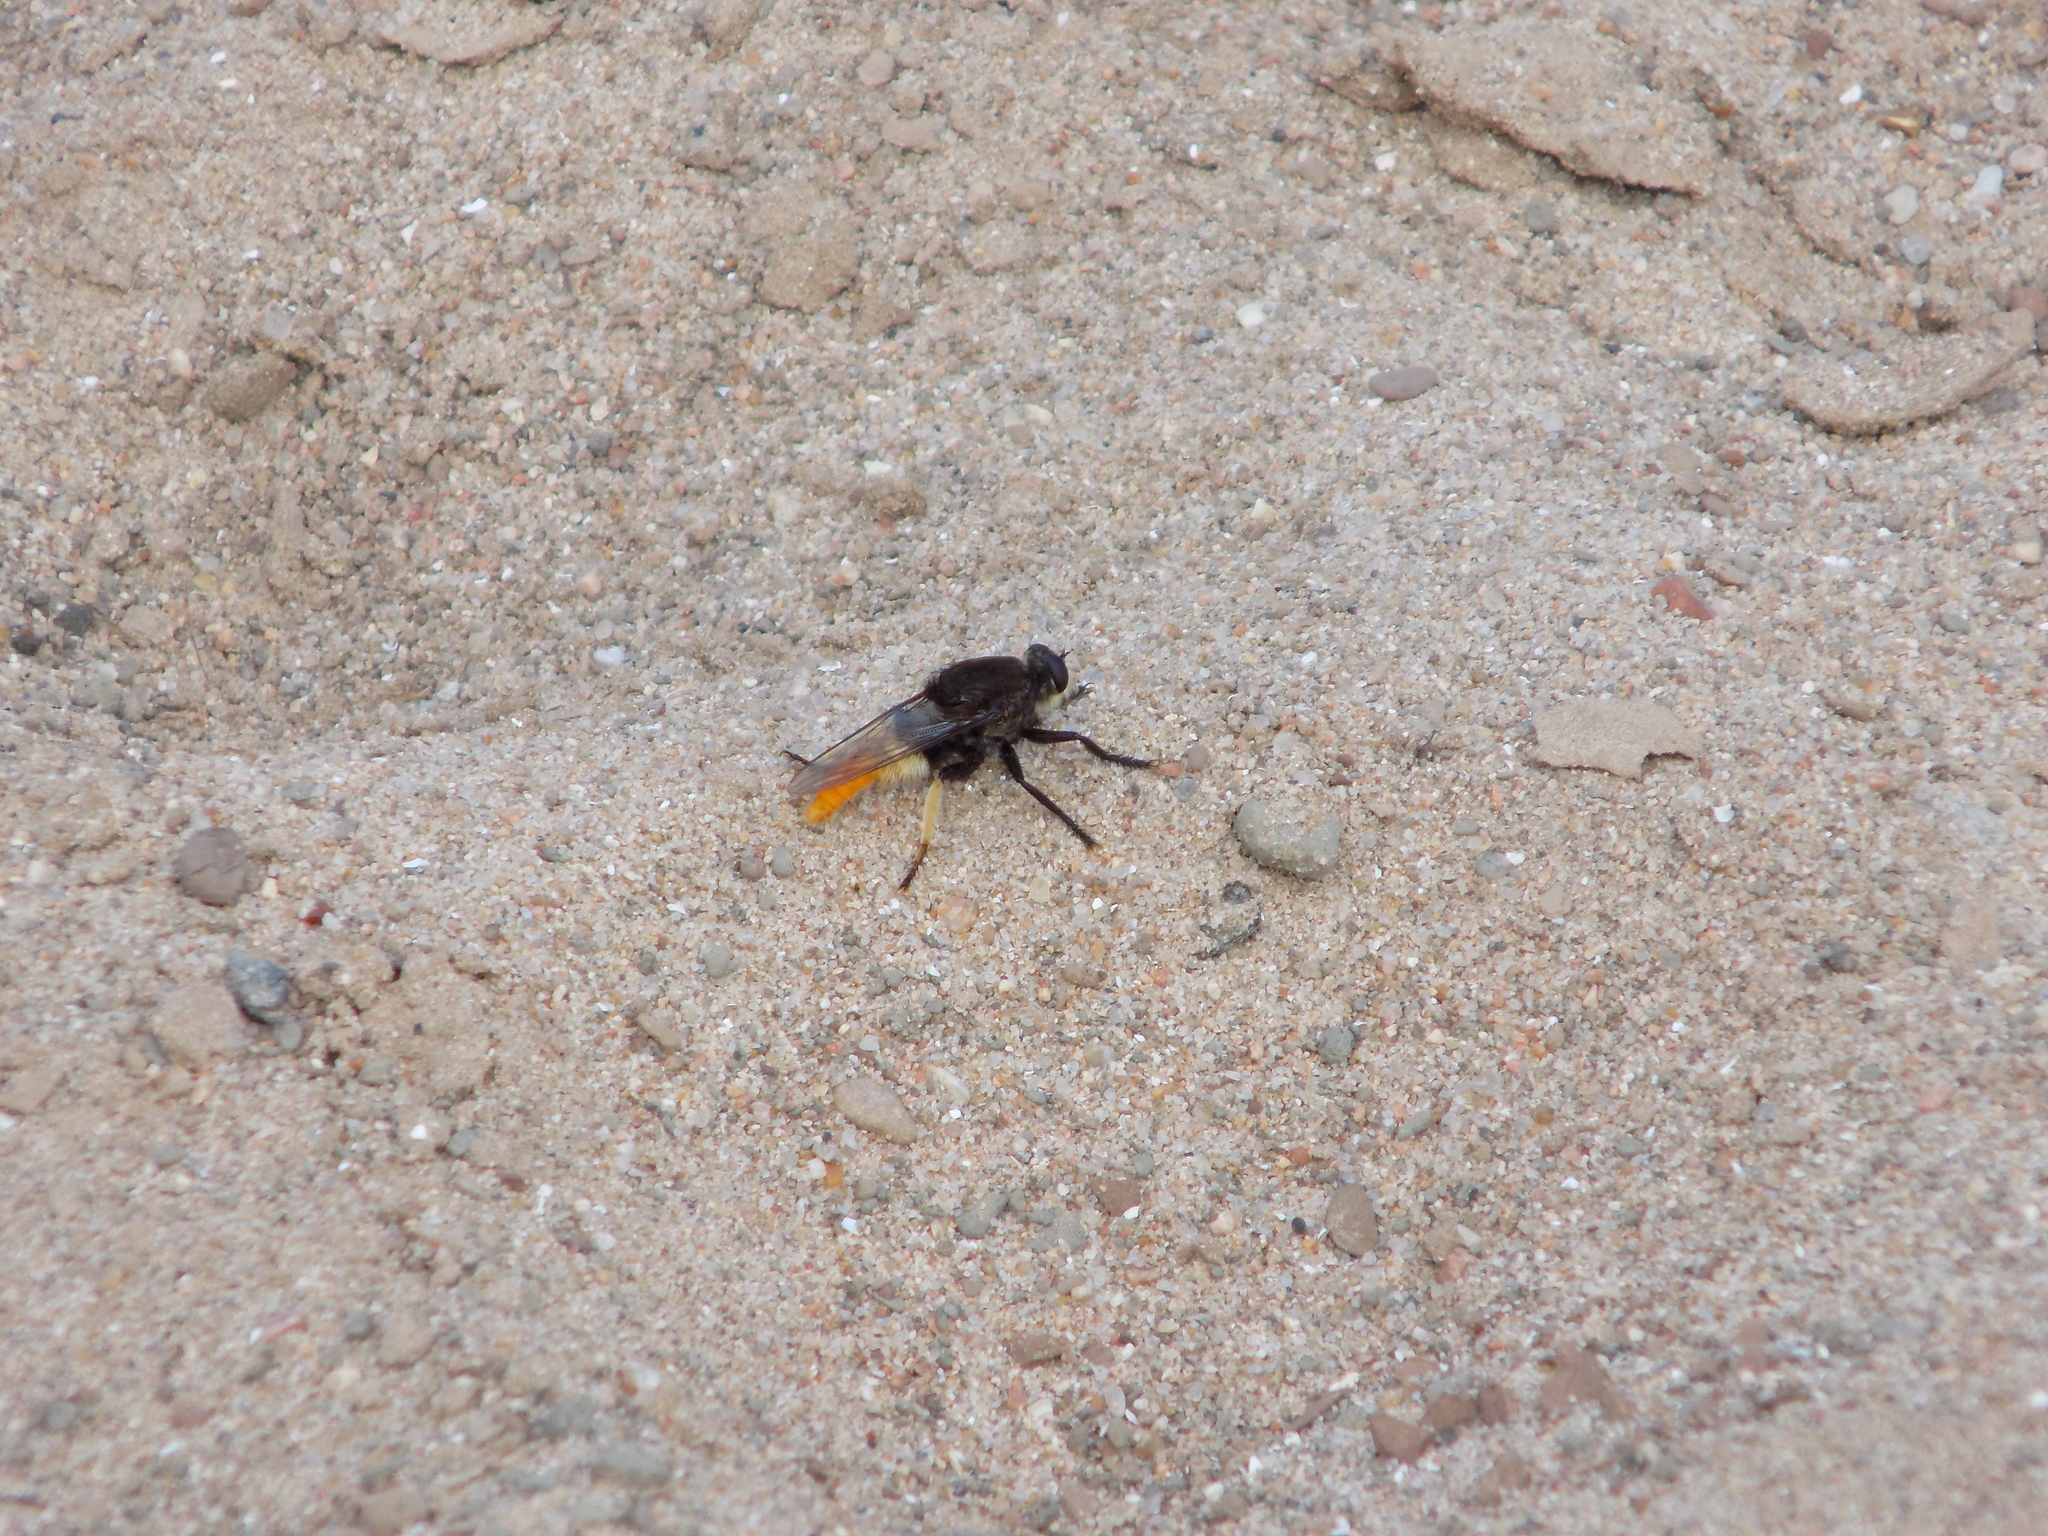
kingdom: Animalia
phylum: Arthropoda
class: Insecta
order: Diptera
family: Asilidae
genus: Eccritosia
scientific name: Eccritosia zamon
